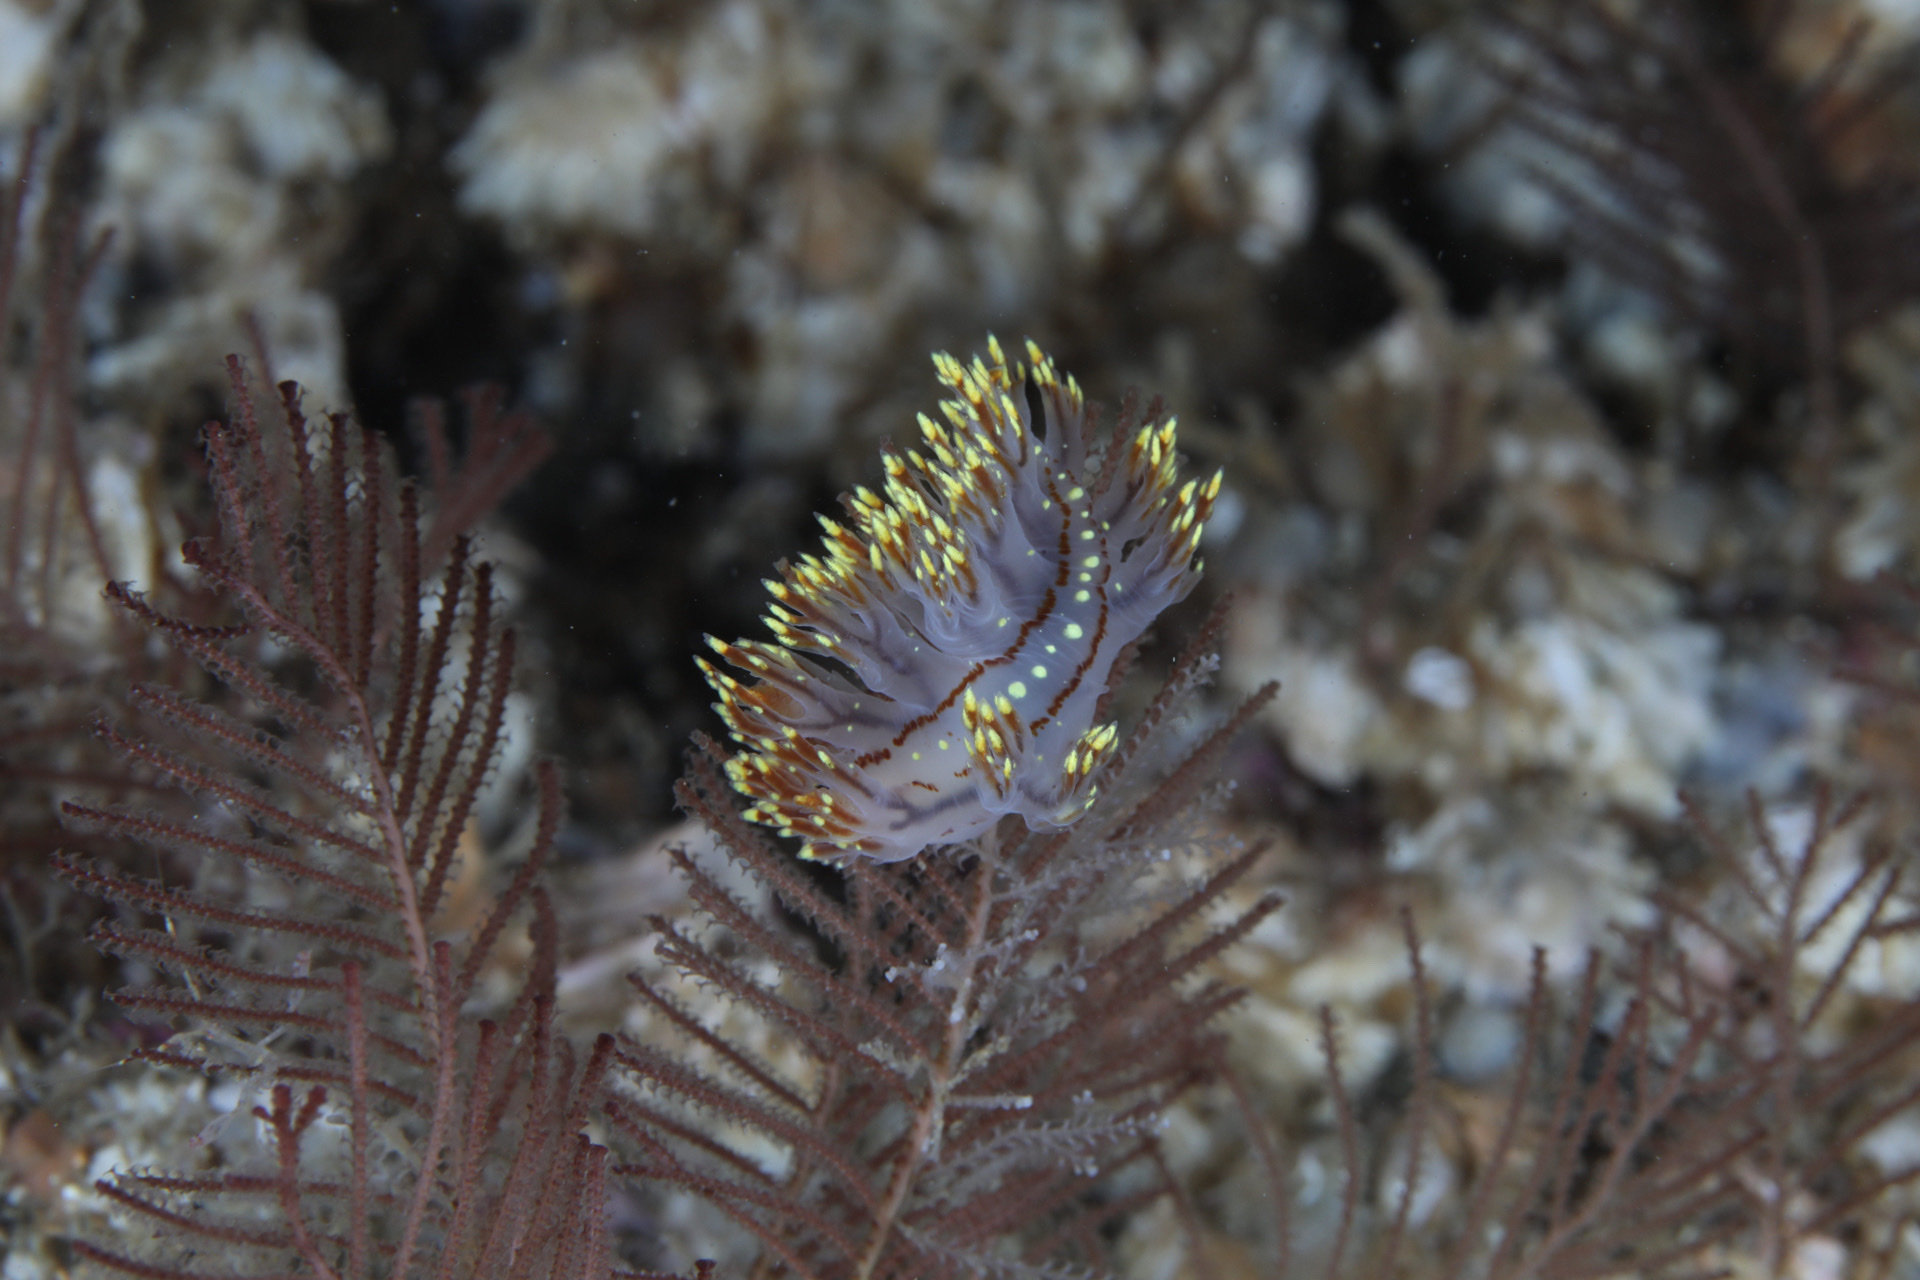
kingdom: Animalia
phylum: Mollusca
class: Gastropoda
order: Nudibranchia
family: Dendronotidae
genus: Dendronotus
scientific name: Dendronotus yrjargul
